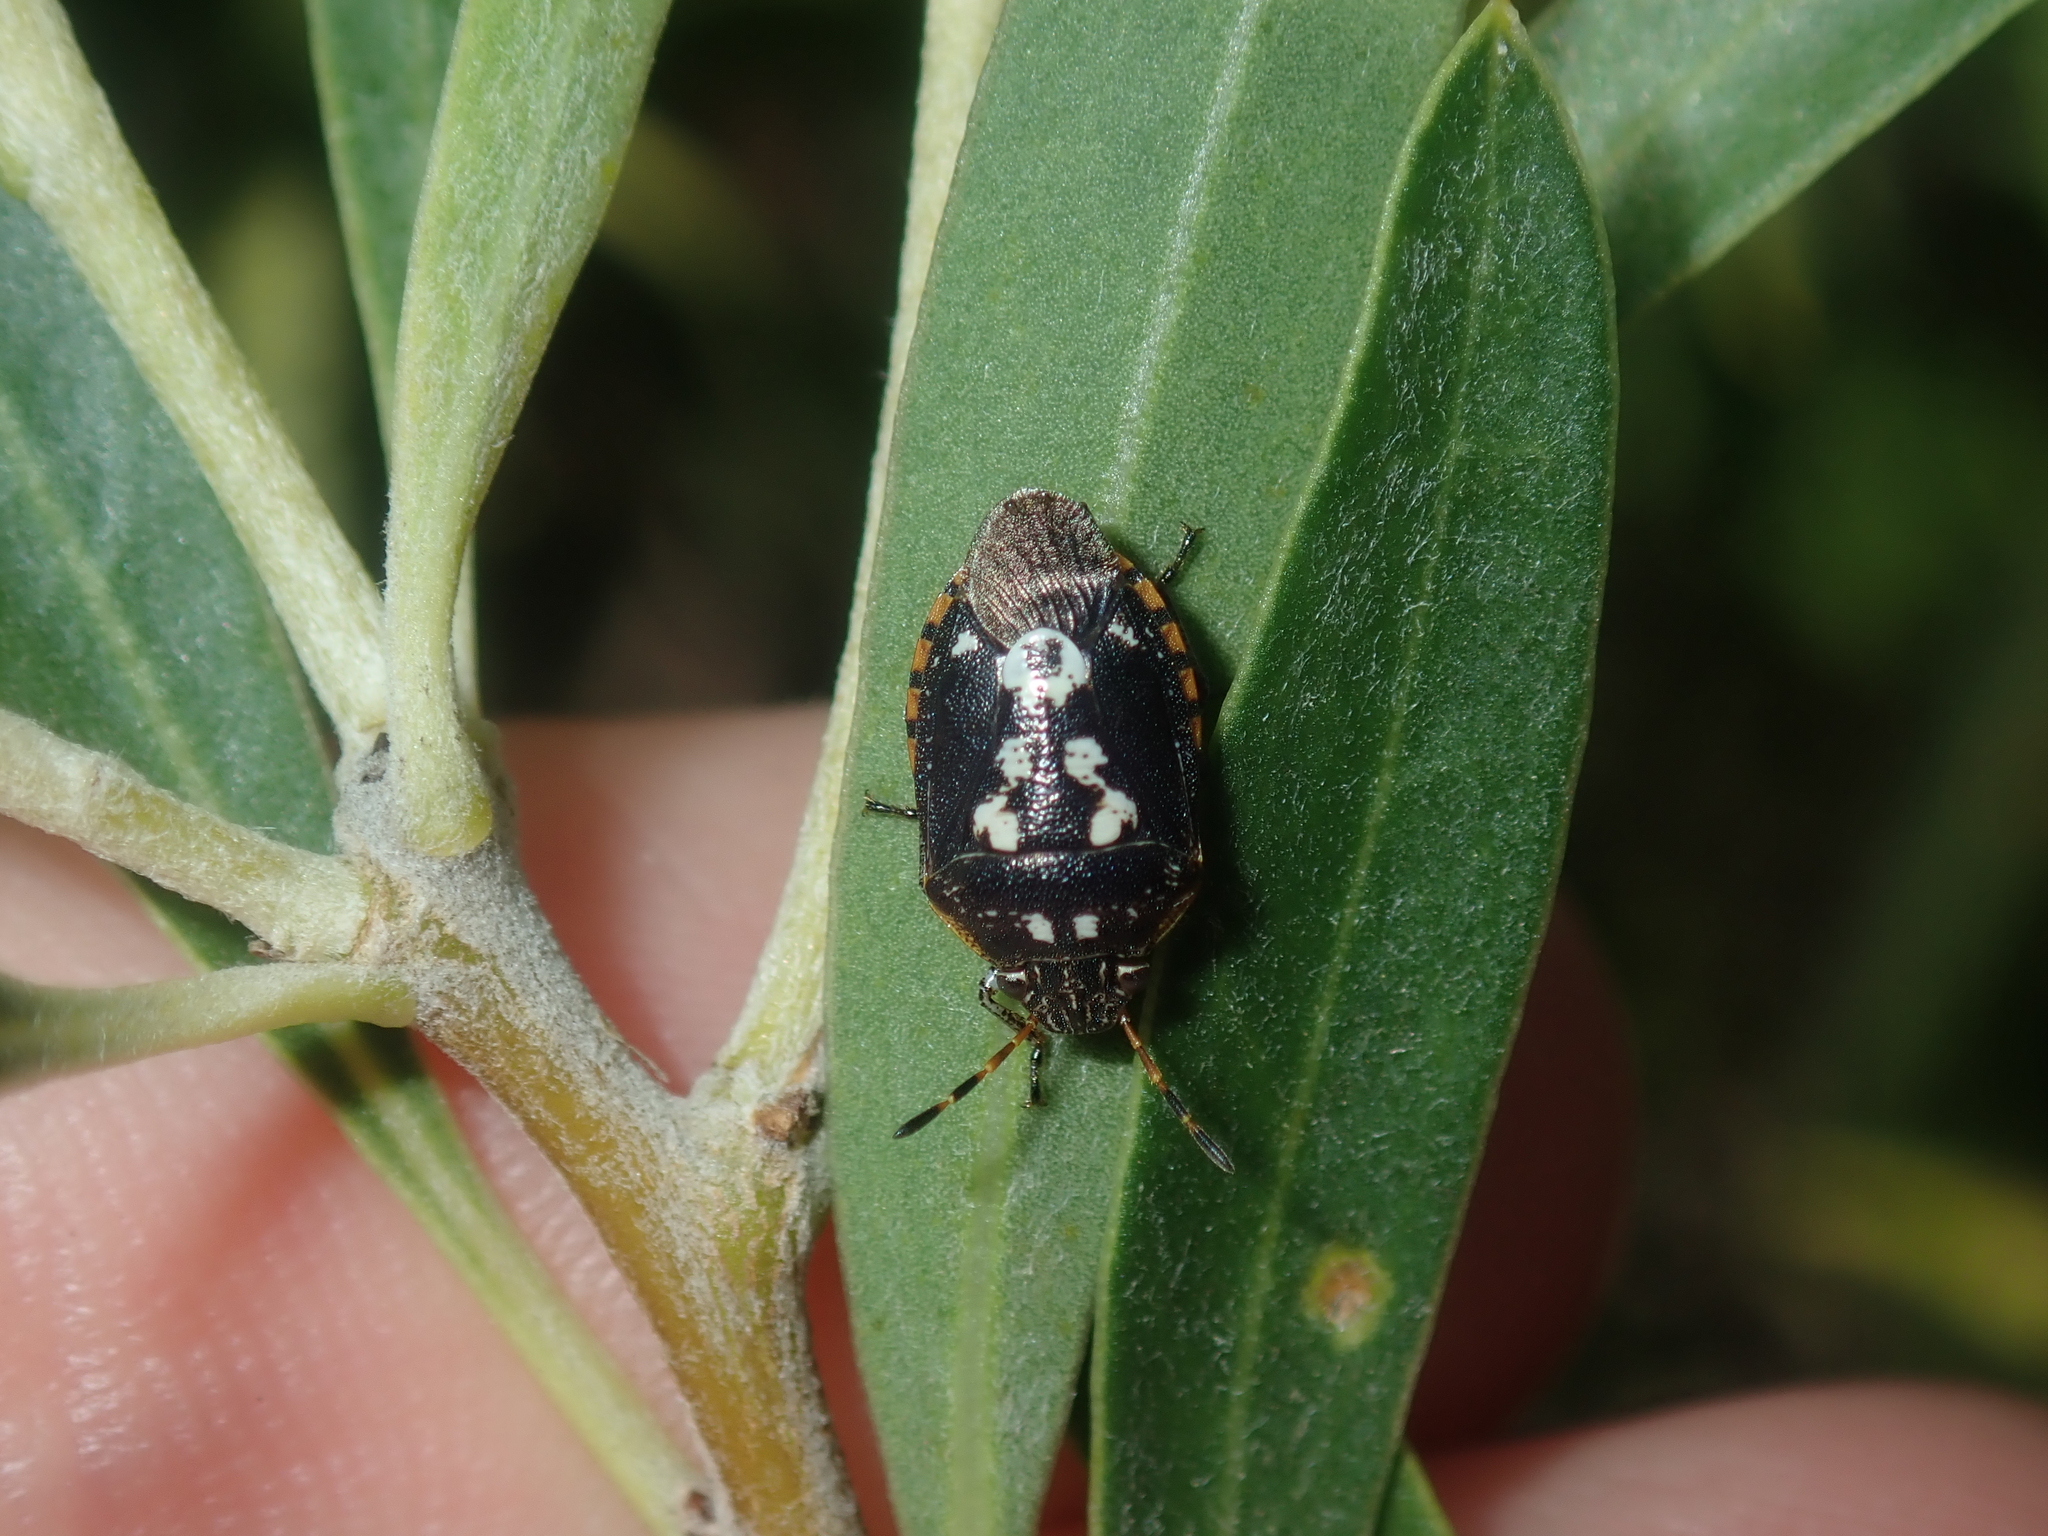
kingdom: Animalia
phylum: Arthropoda
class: Insecta
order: Hemiptera
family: Pentatomidae
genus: Pseudapines
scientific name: Pseudapines
